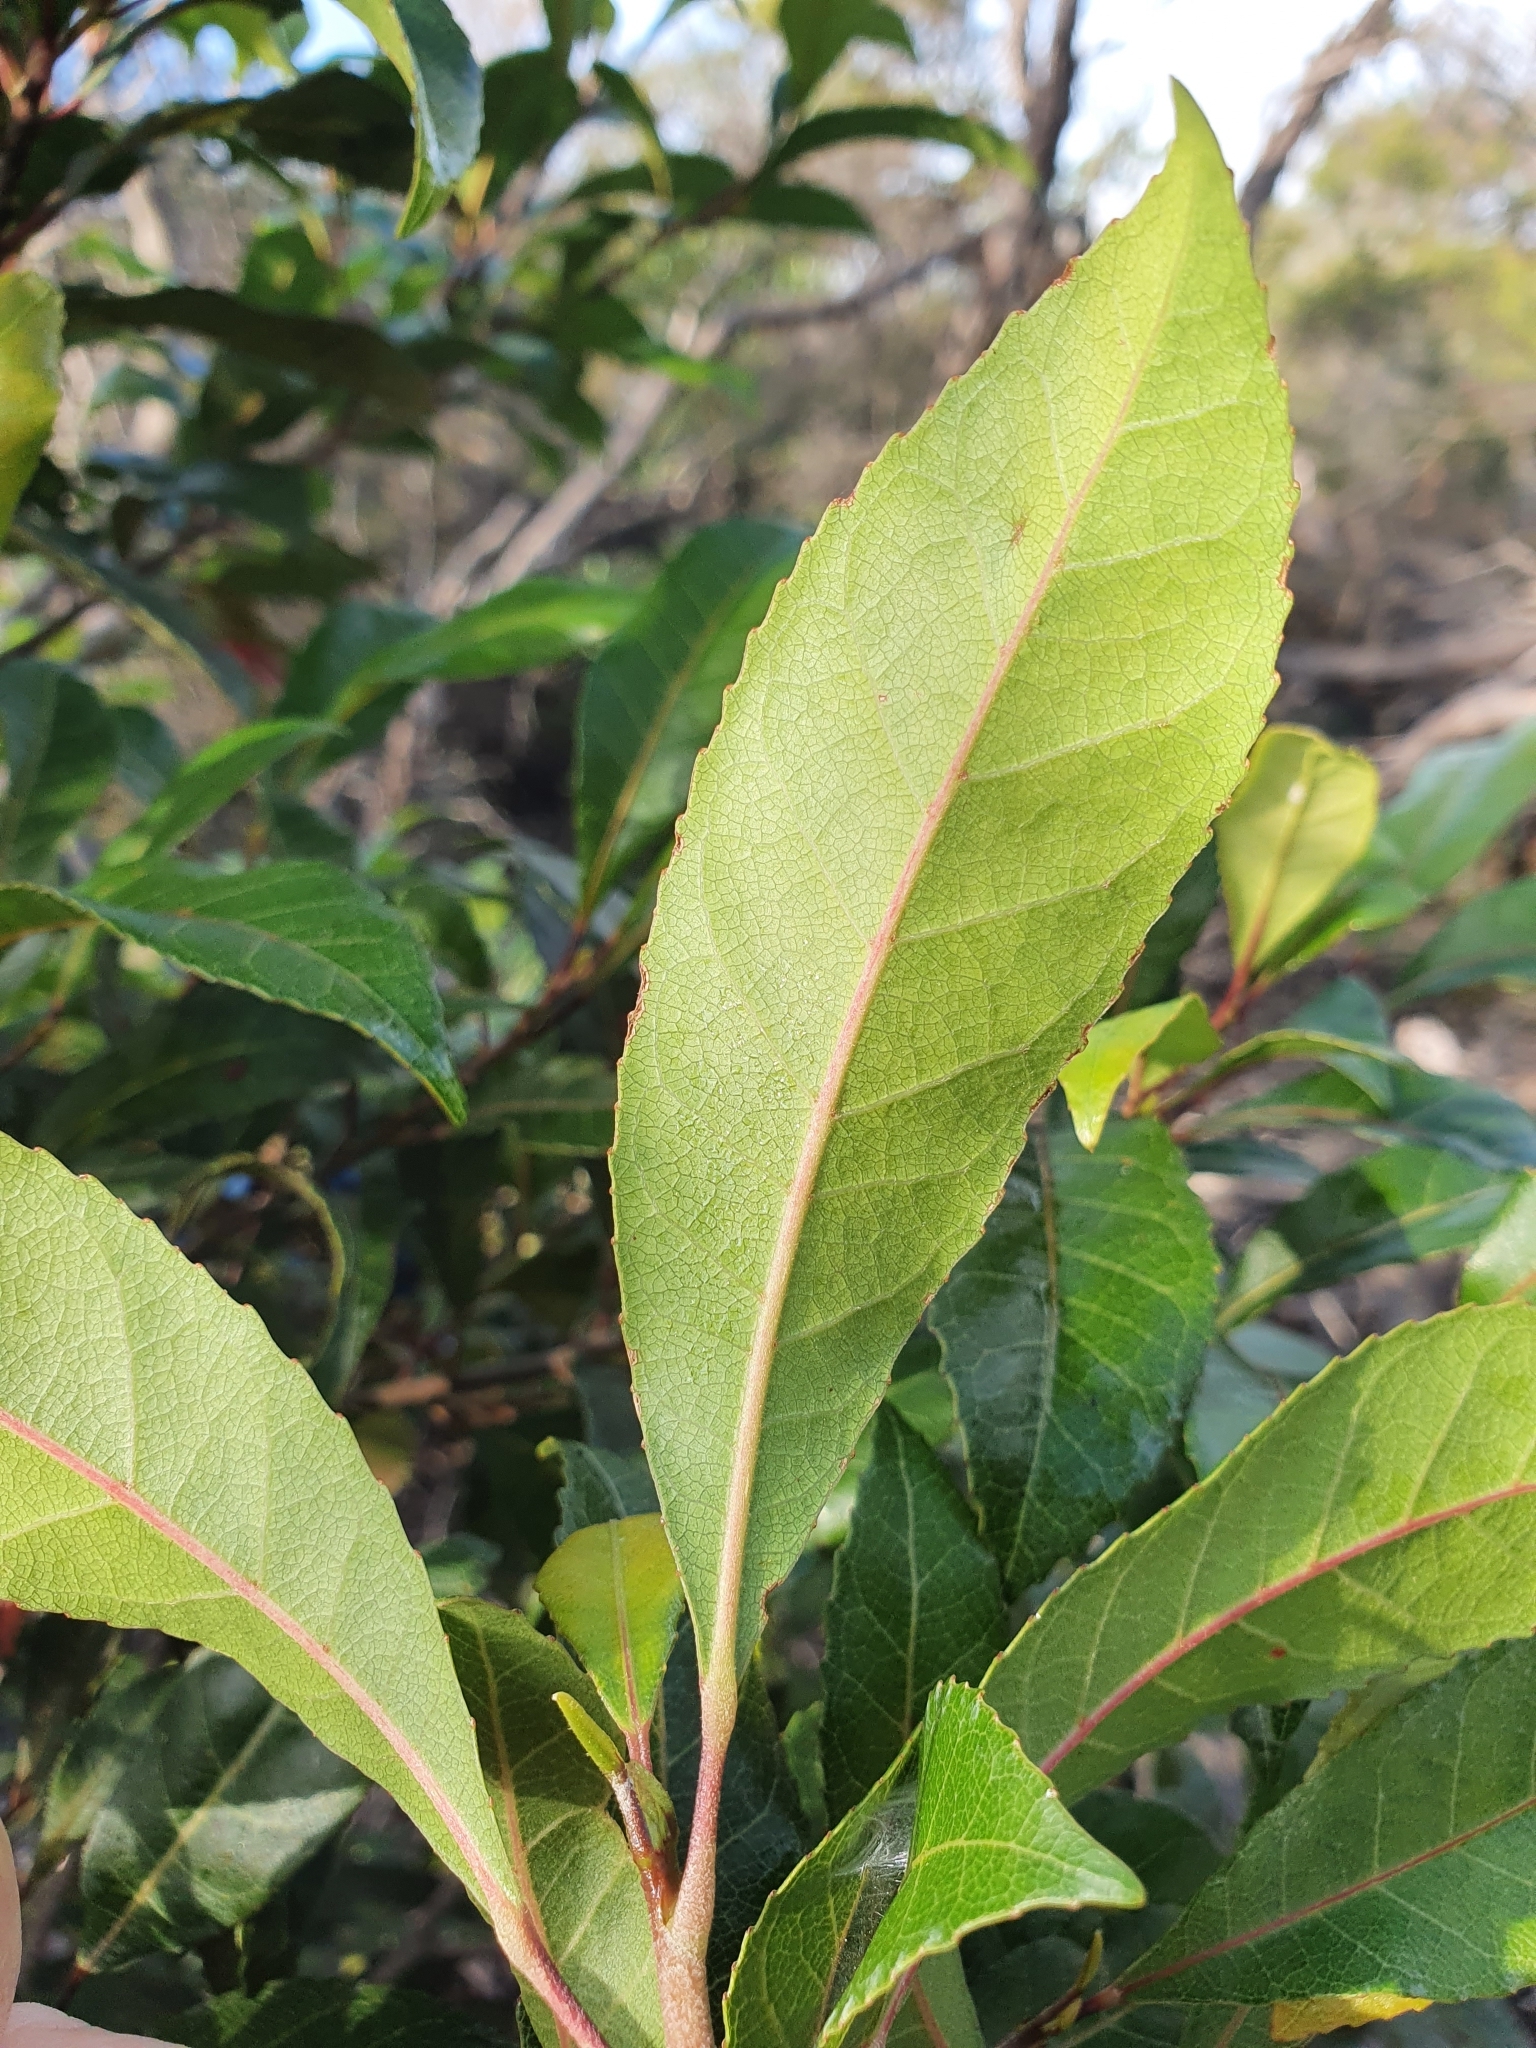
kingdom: Plantae
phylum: Tracheophyta
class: Magnoliopsida
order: Oxalidales
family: Elaeocarpaceae
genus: Elaeocarpus
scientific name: Elaeocarpus reticulatus
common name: Ash quandong
